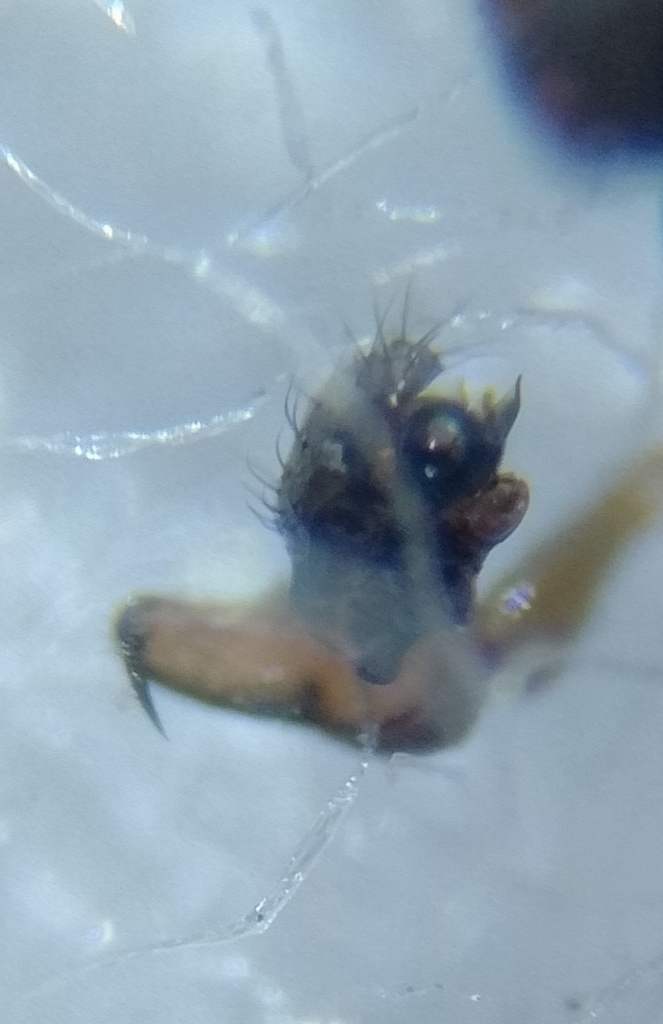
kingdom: Animalia
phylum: Arthropoda
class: Arachnida
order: Araneae
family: Linyphiidae
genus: Dicymbium
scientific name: Dicymbium nigrum
